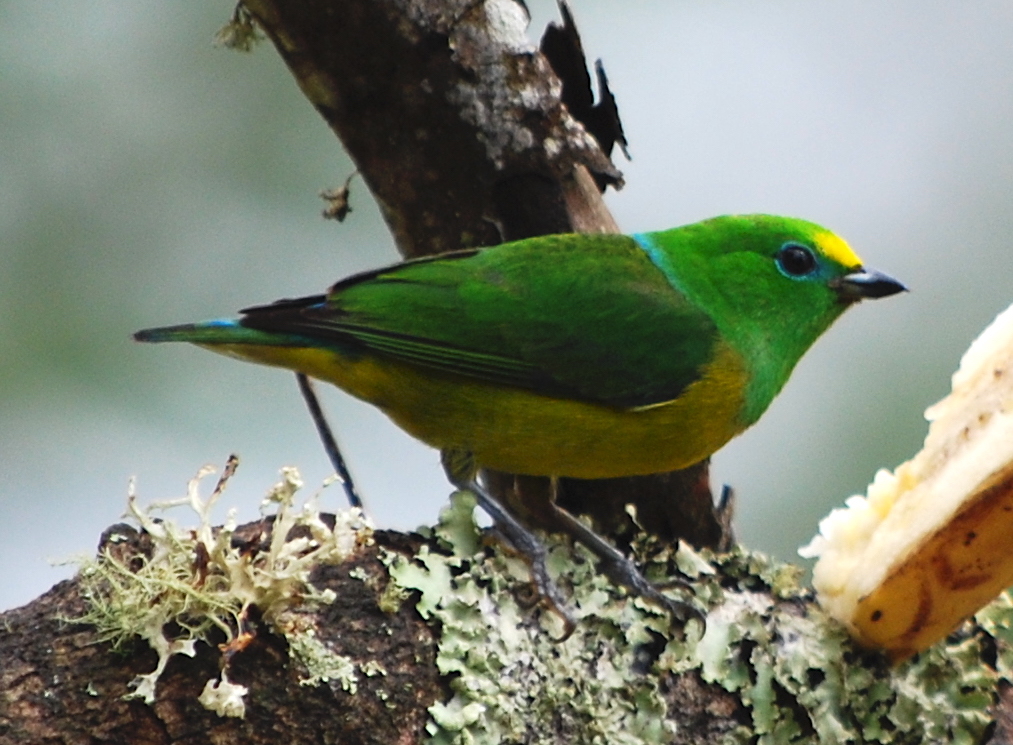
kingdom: Animalia
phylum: Chordata
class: Aves
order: Passeriformes
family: Fringillidae
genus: Chlorophonia
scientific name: Chlorophonia cyanea
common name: Blue-naped chlorophonia
